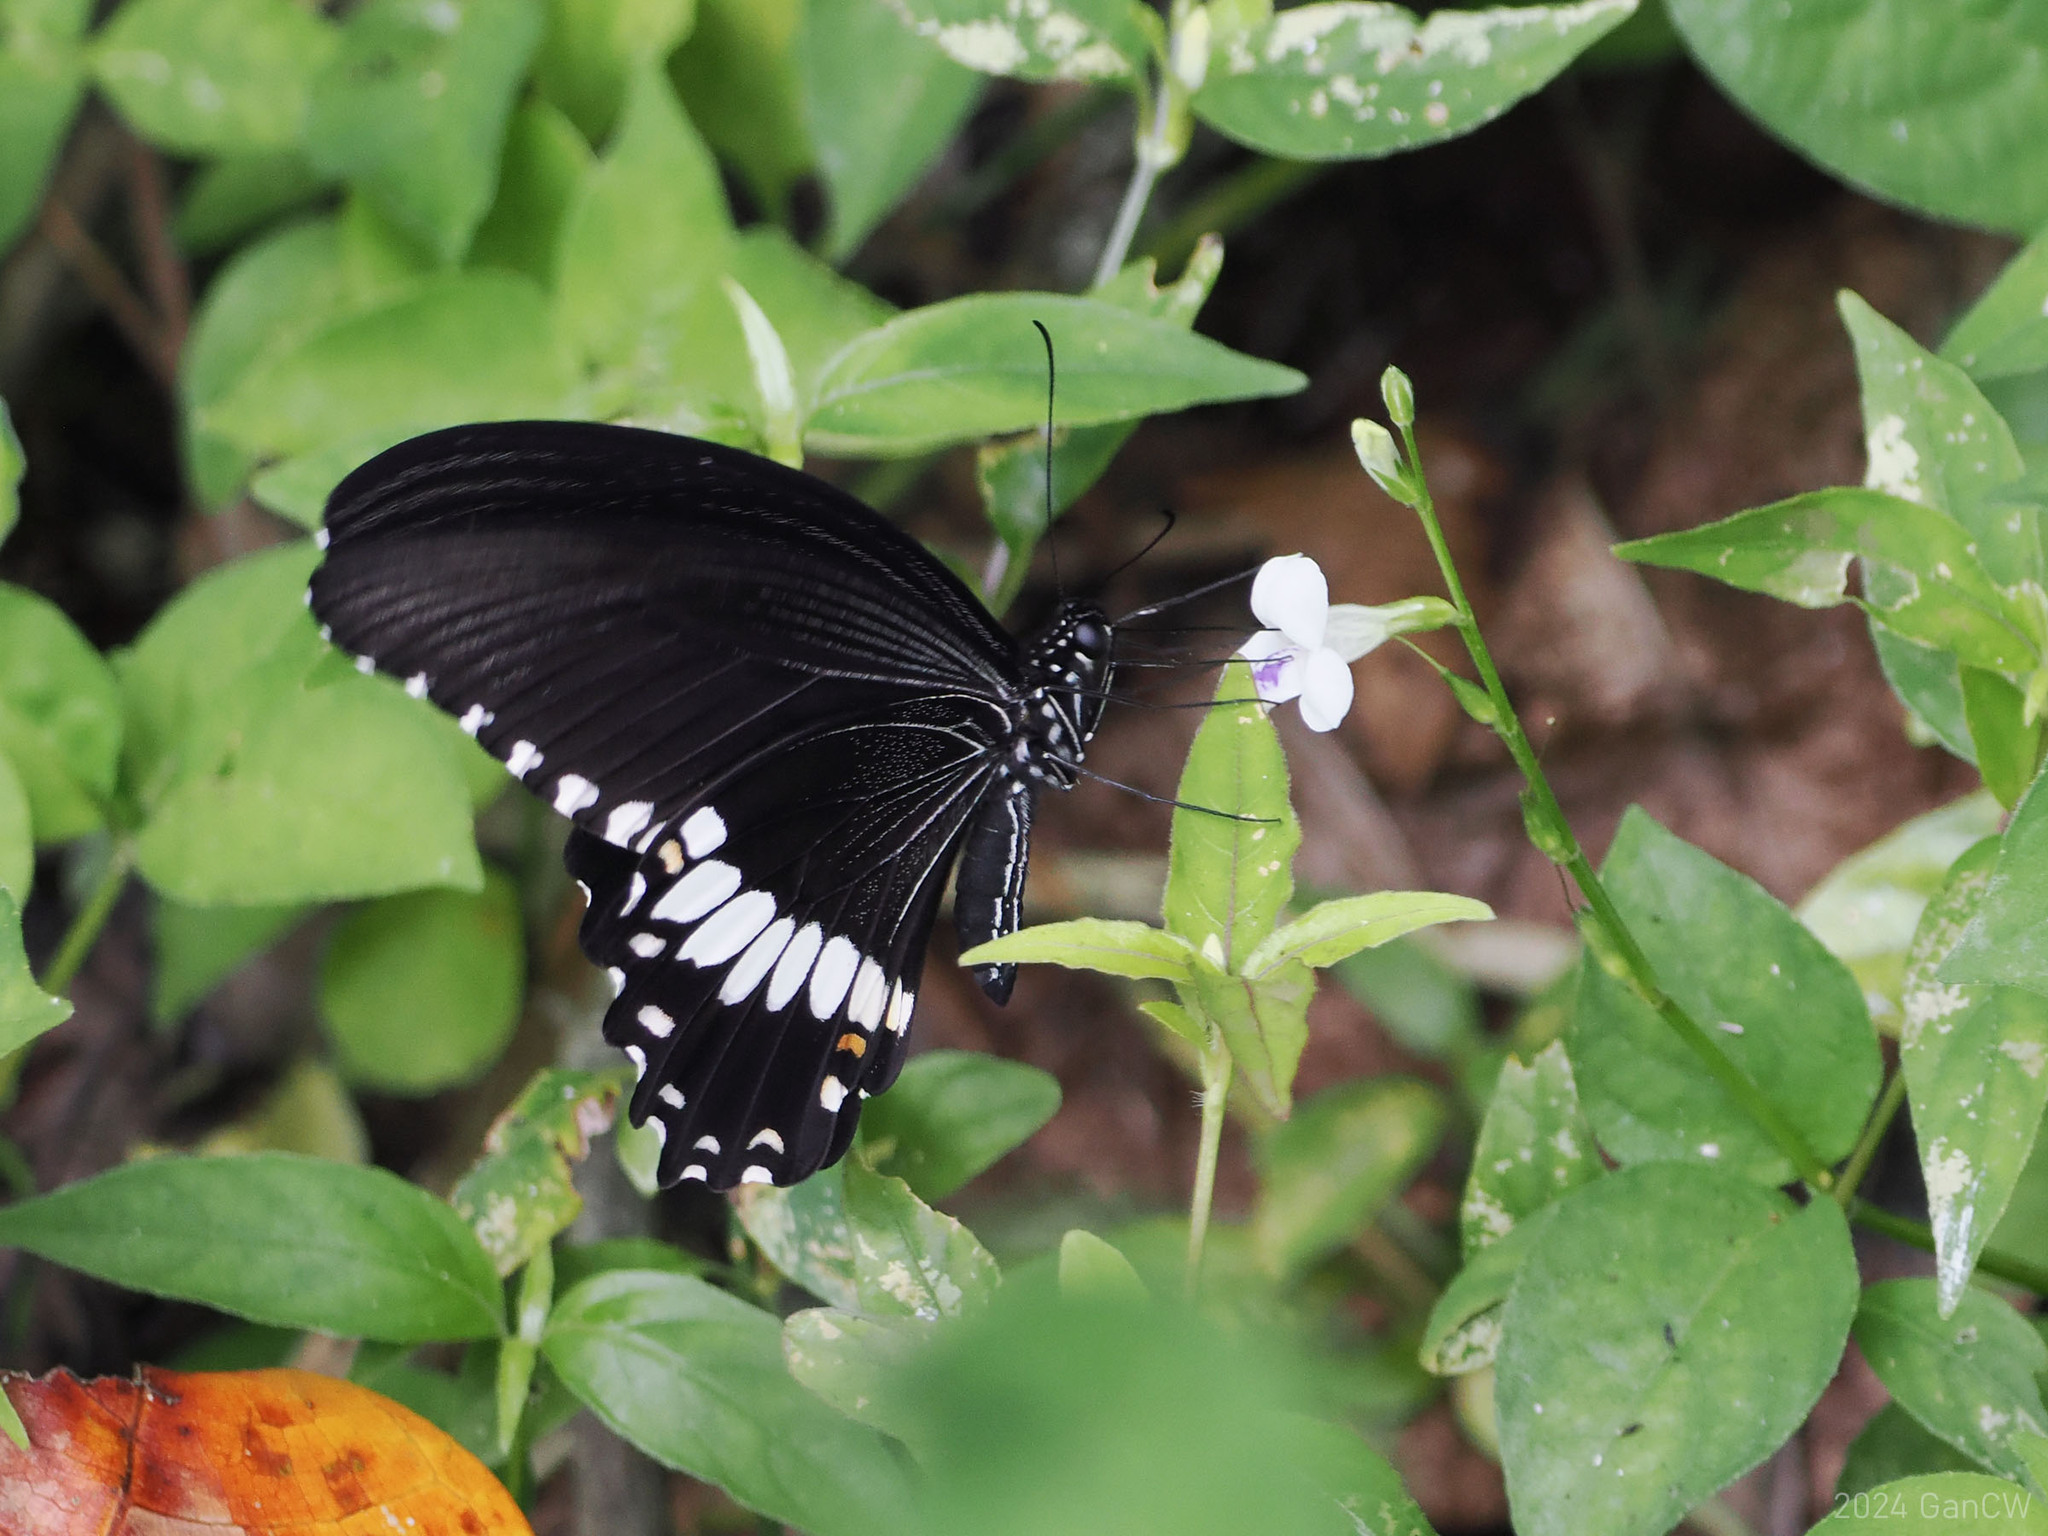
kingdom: Animalia
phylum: Arthropoda
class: Insecta
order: Lepidoptera
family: Papilionidae
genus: Papilio
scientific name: Papilio alphenor
